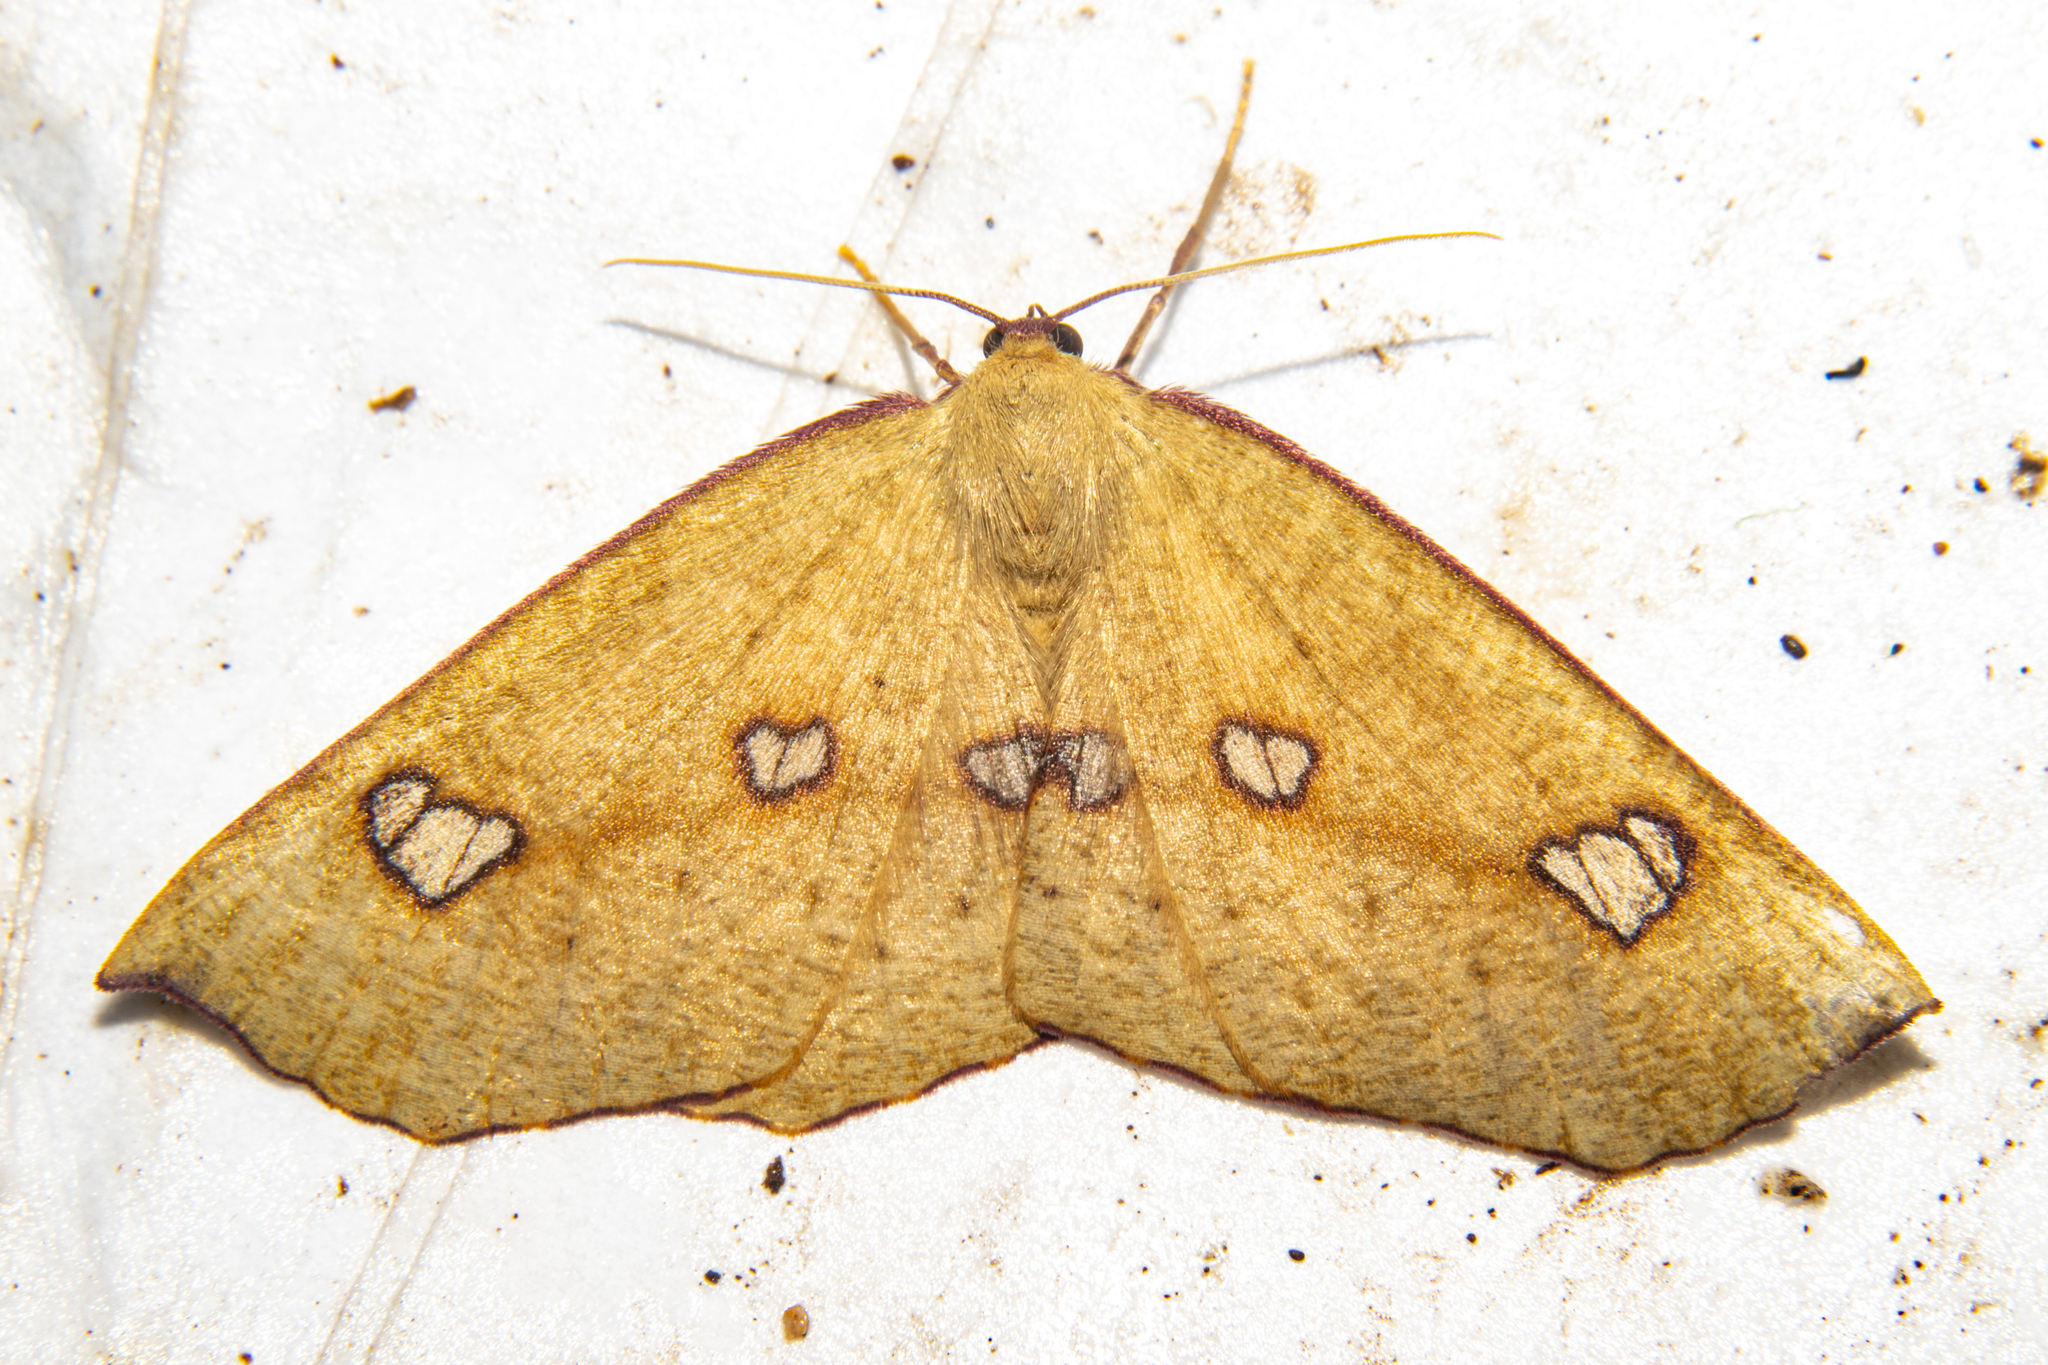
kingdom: Animalia
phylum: Arthropoda
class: Insecta
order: Lepidoptera
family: Geometridae
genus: Xyridacma
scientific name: Xyridacma alectoraria
